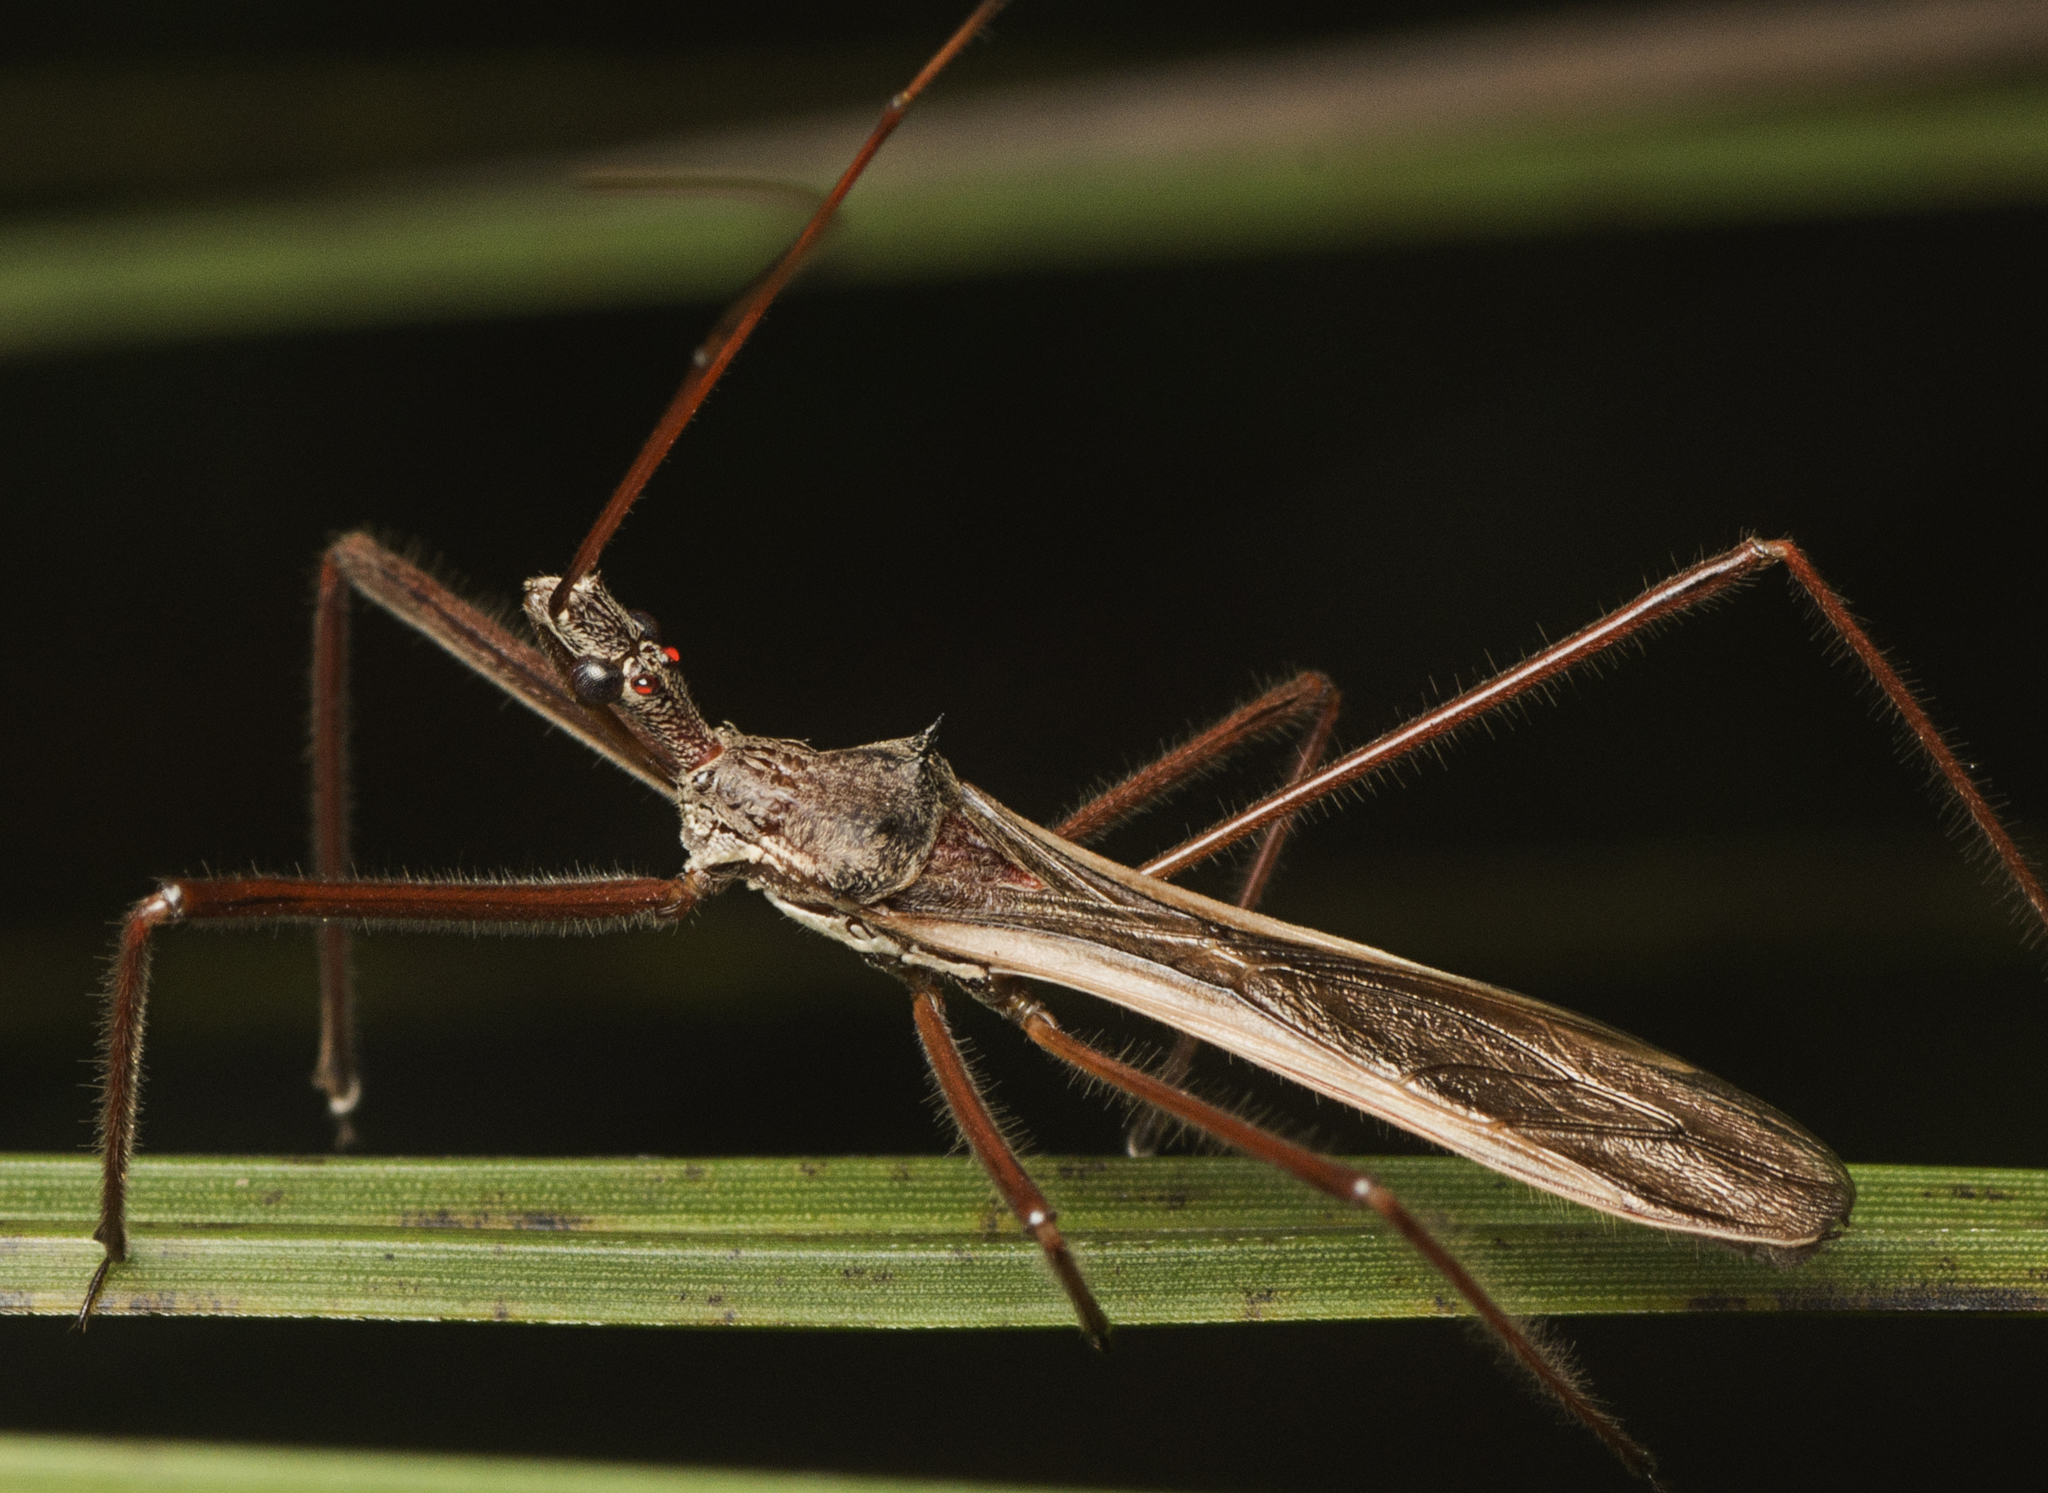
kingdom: Animalia
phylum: Arthropoda
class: Insecta
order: Hemiptera
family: Reduviidae
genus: Australcmena
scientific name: Australcmena lineativentris
